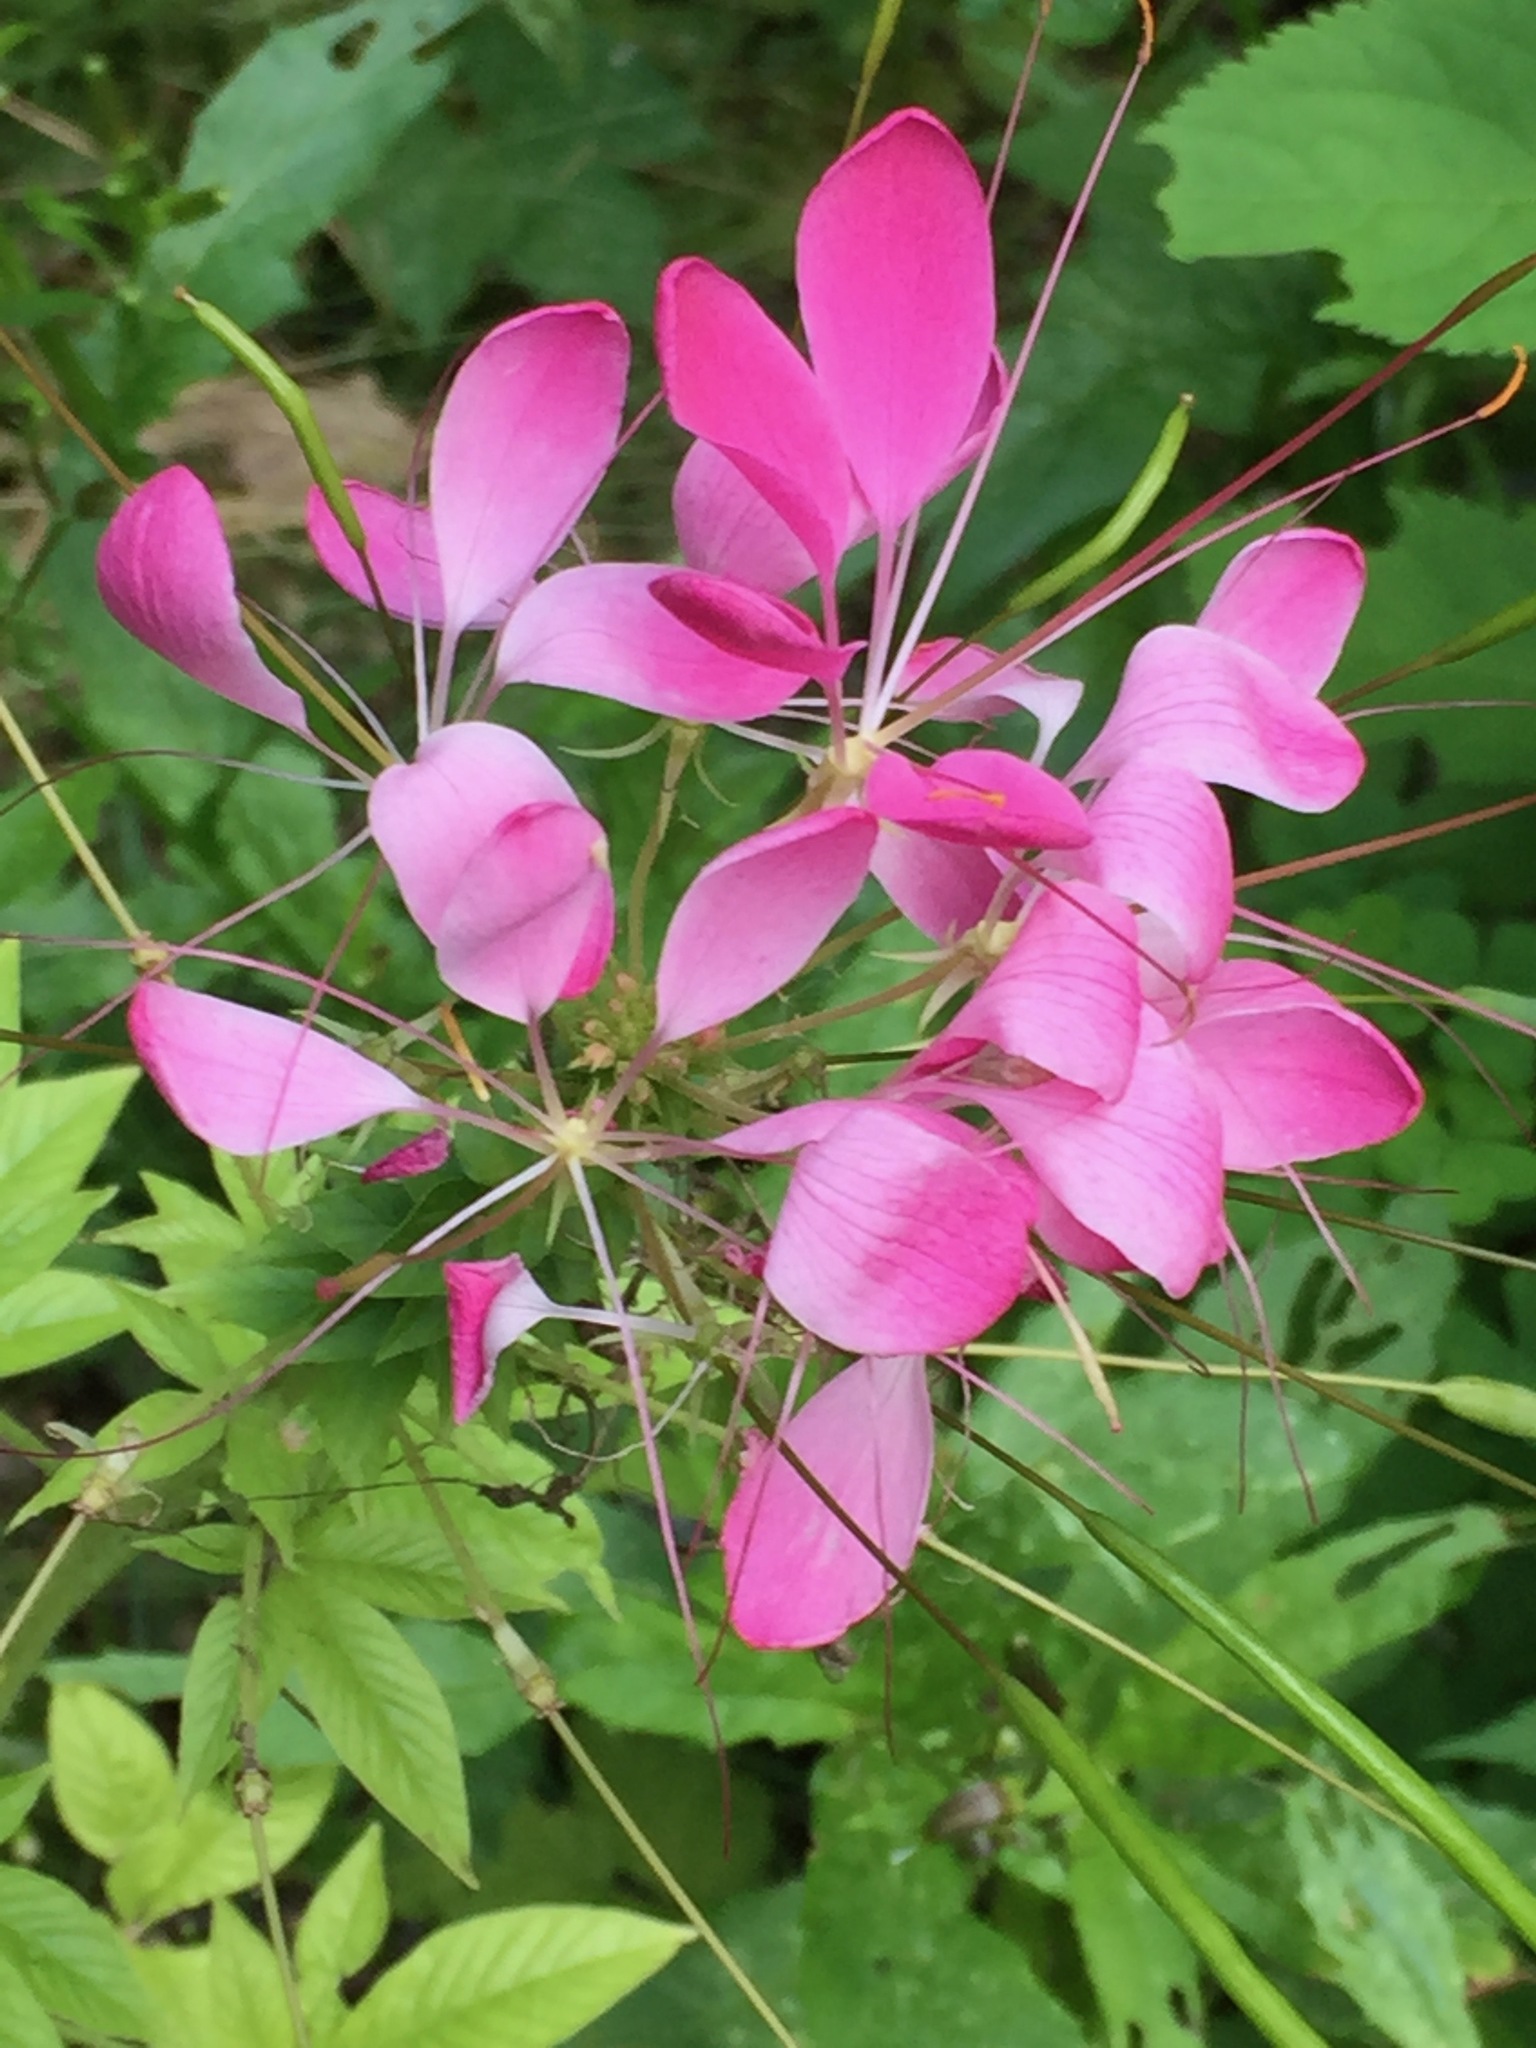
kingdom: Plantae
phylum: Tracheophyta
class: Magnoliopsida
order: Brassicales
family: Cleomaceae
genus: Tarenaya
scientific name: Tarenaya houtteana
